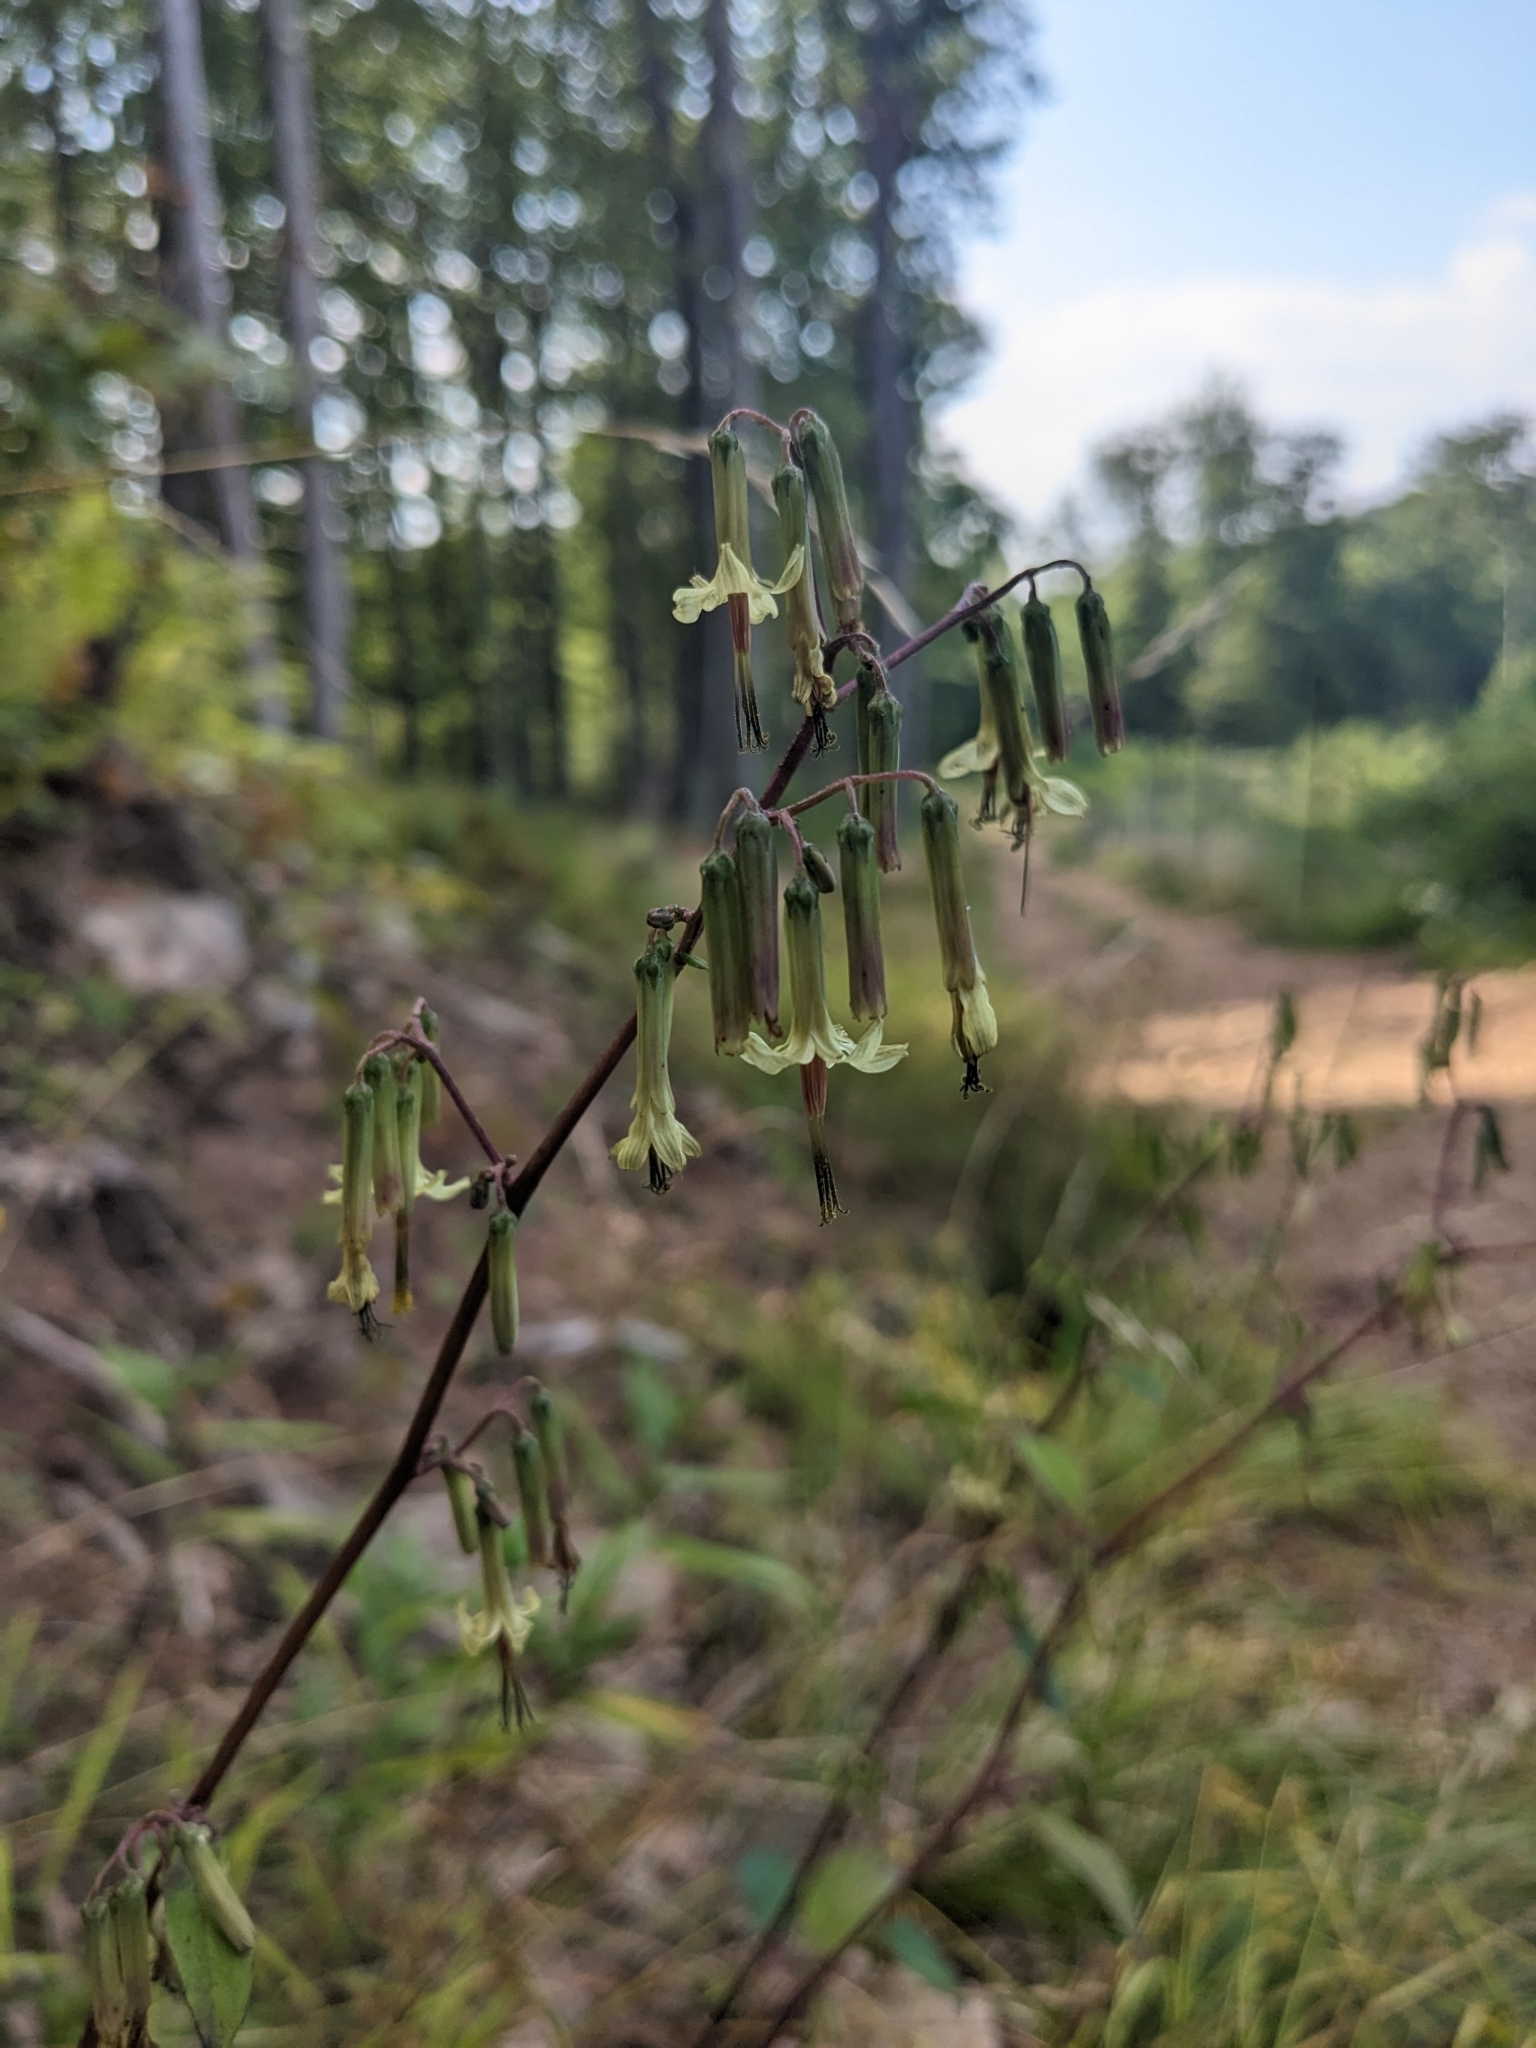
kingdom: Plantae
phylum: Tracheophyta
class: Magnoliopsida
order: Asterales
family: Asteraceae
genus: Nabalus
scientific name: Nabalus altissima
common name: Tall rattlesnakeroot
